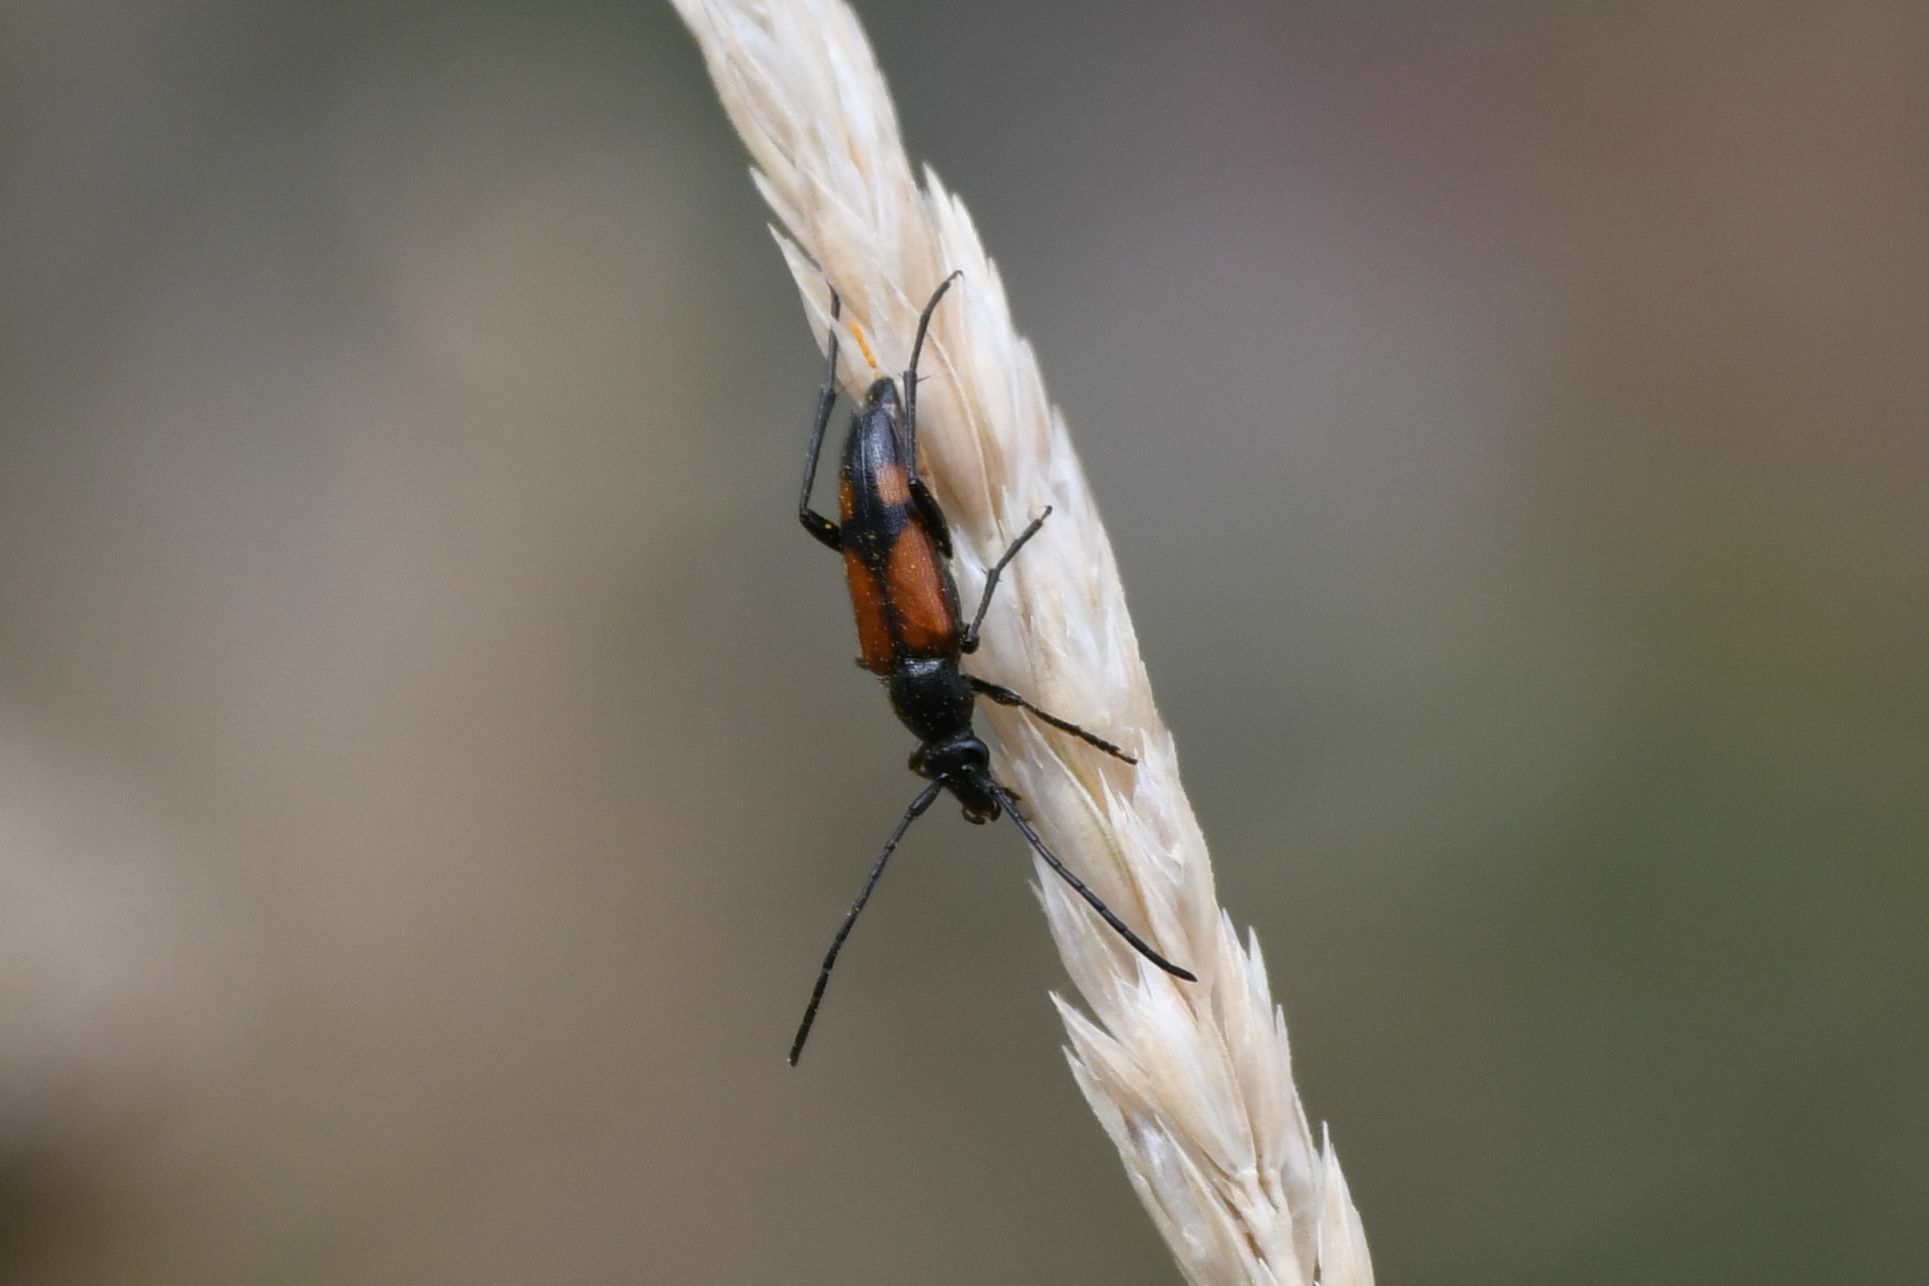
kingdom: Animalia
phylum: Arthropoda
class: Insecta
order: Coleoptera
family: Cerambycidae
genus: Stenurella
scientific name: Stenurella bifasciata
